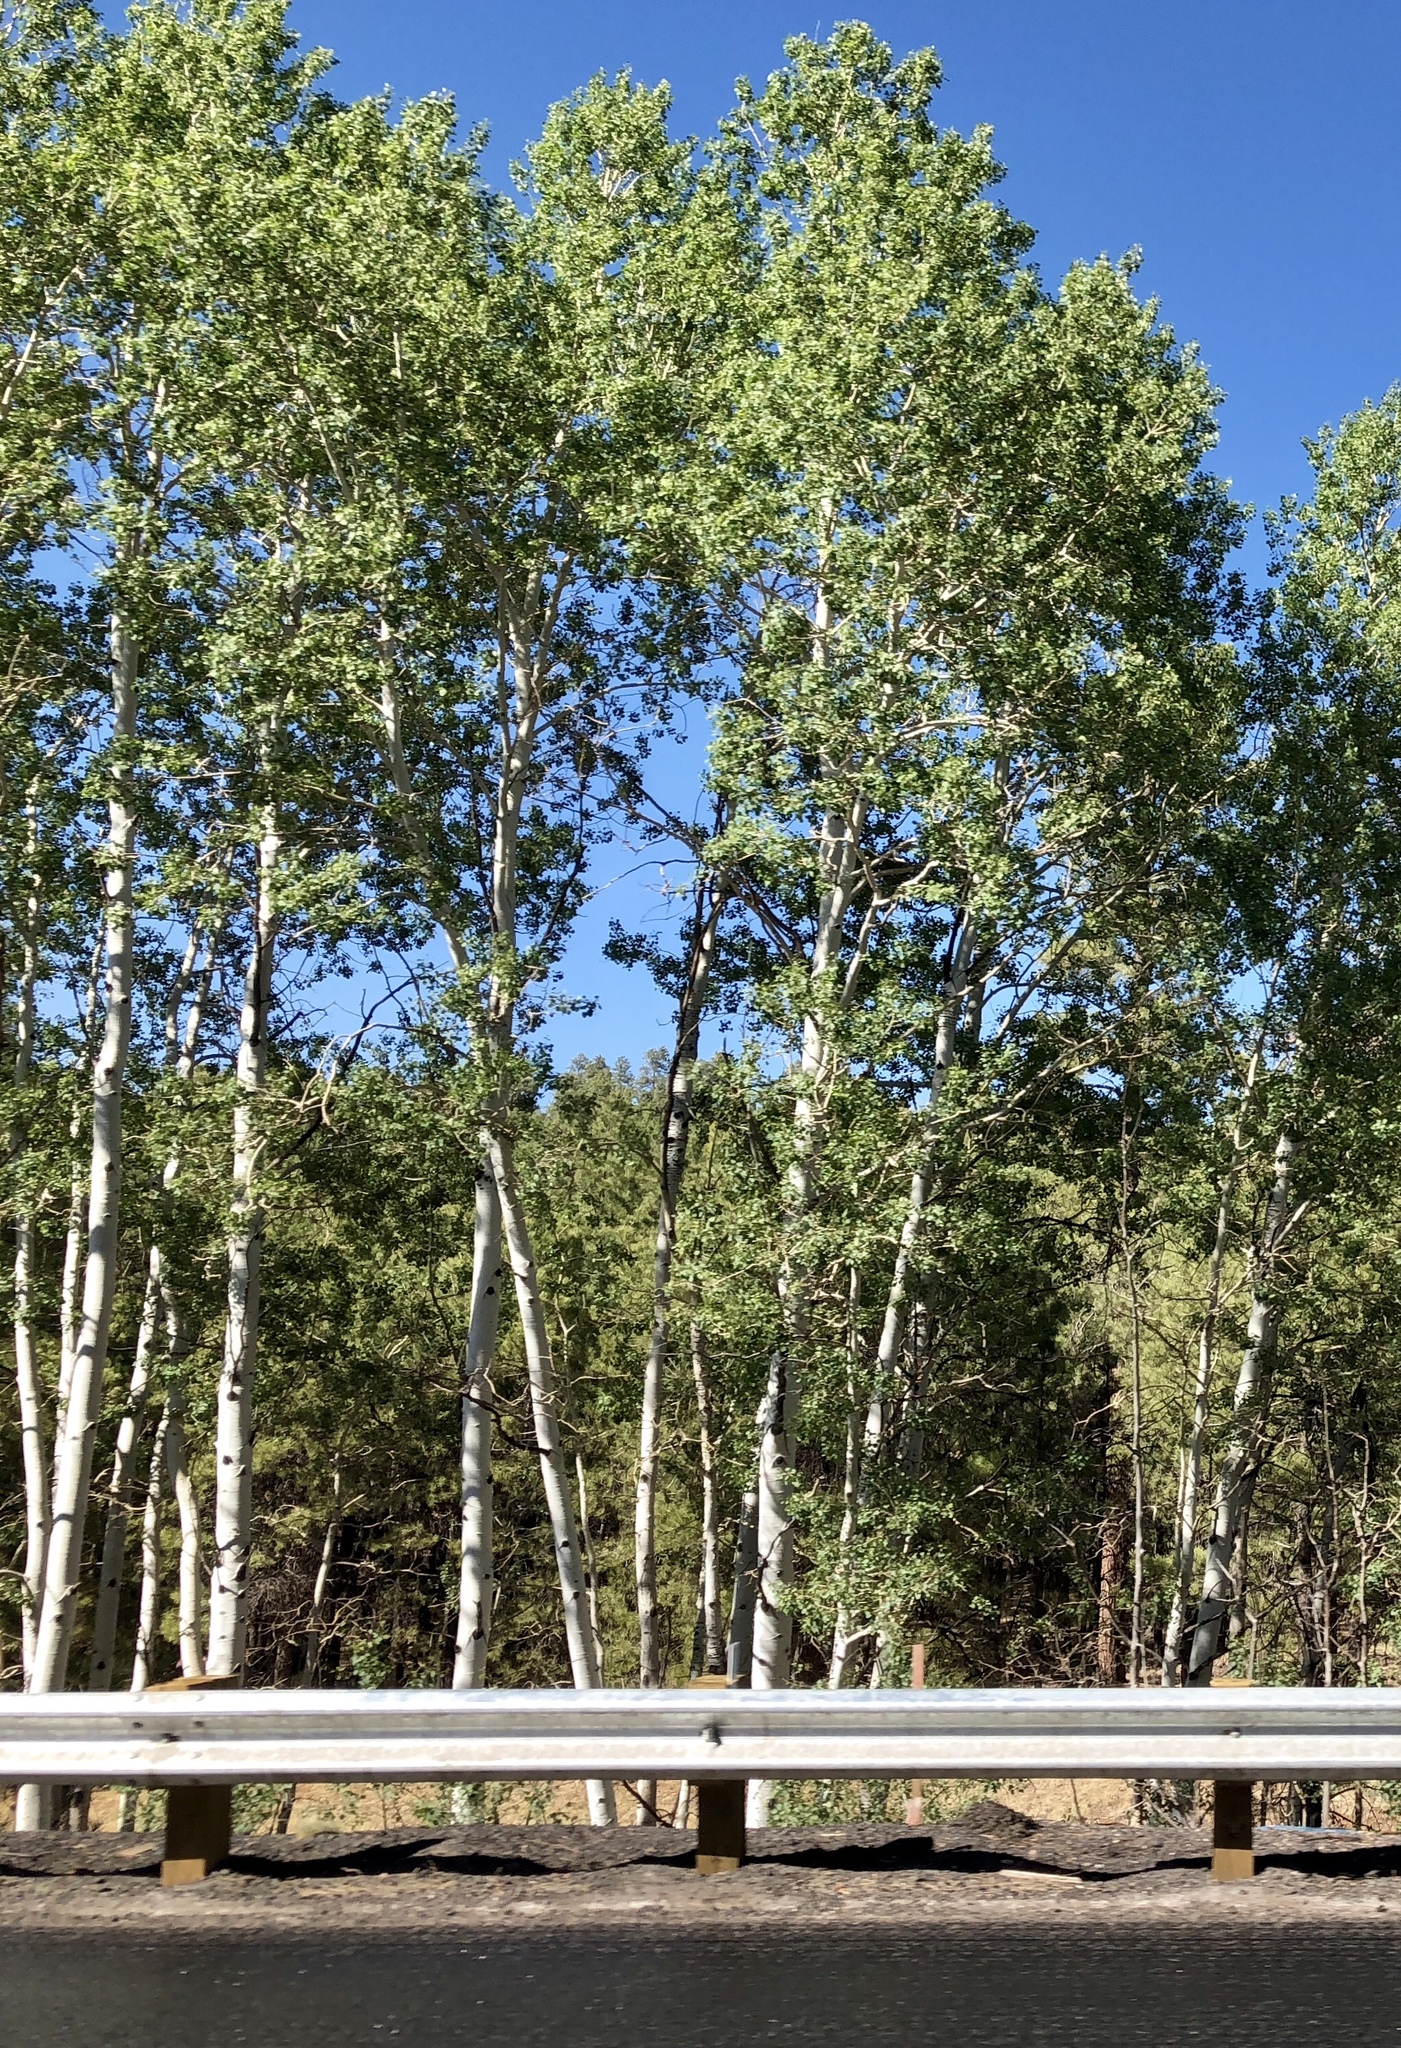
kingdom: Plantae
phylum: Tracheophyta
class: Magnoliopsida
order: Malpighiales
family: Salicaceae
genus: Populus
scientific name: Populus tremuloides
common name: Quaking aspen
